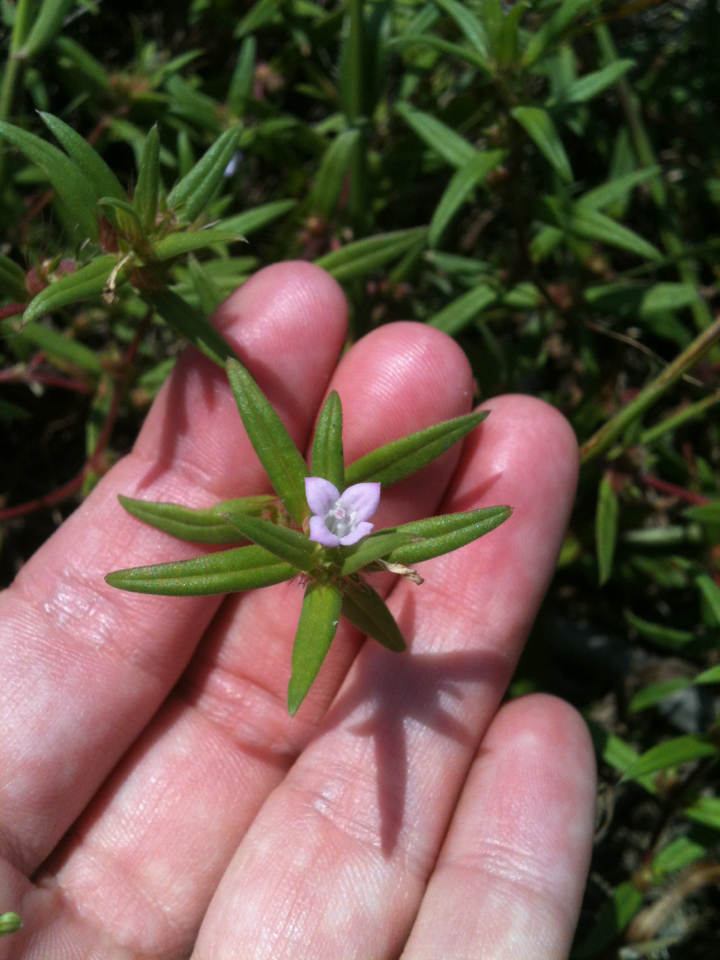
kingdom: Plantae
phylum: Tracheophyta
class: Magnoliopsida
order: Gentianales
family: Rubiaceae
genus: Hexasepalum
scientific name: Hexasepalum teres
